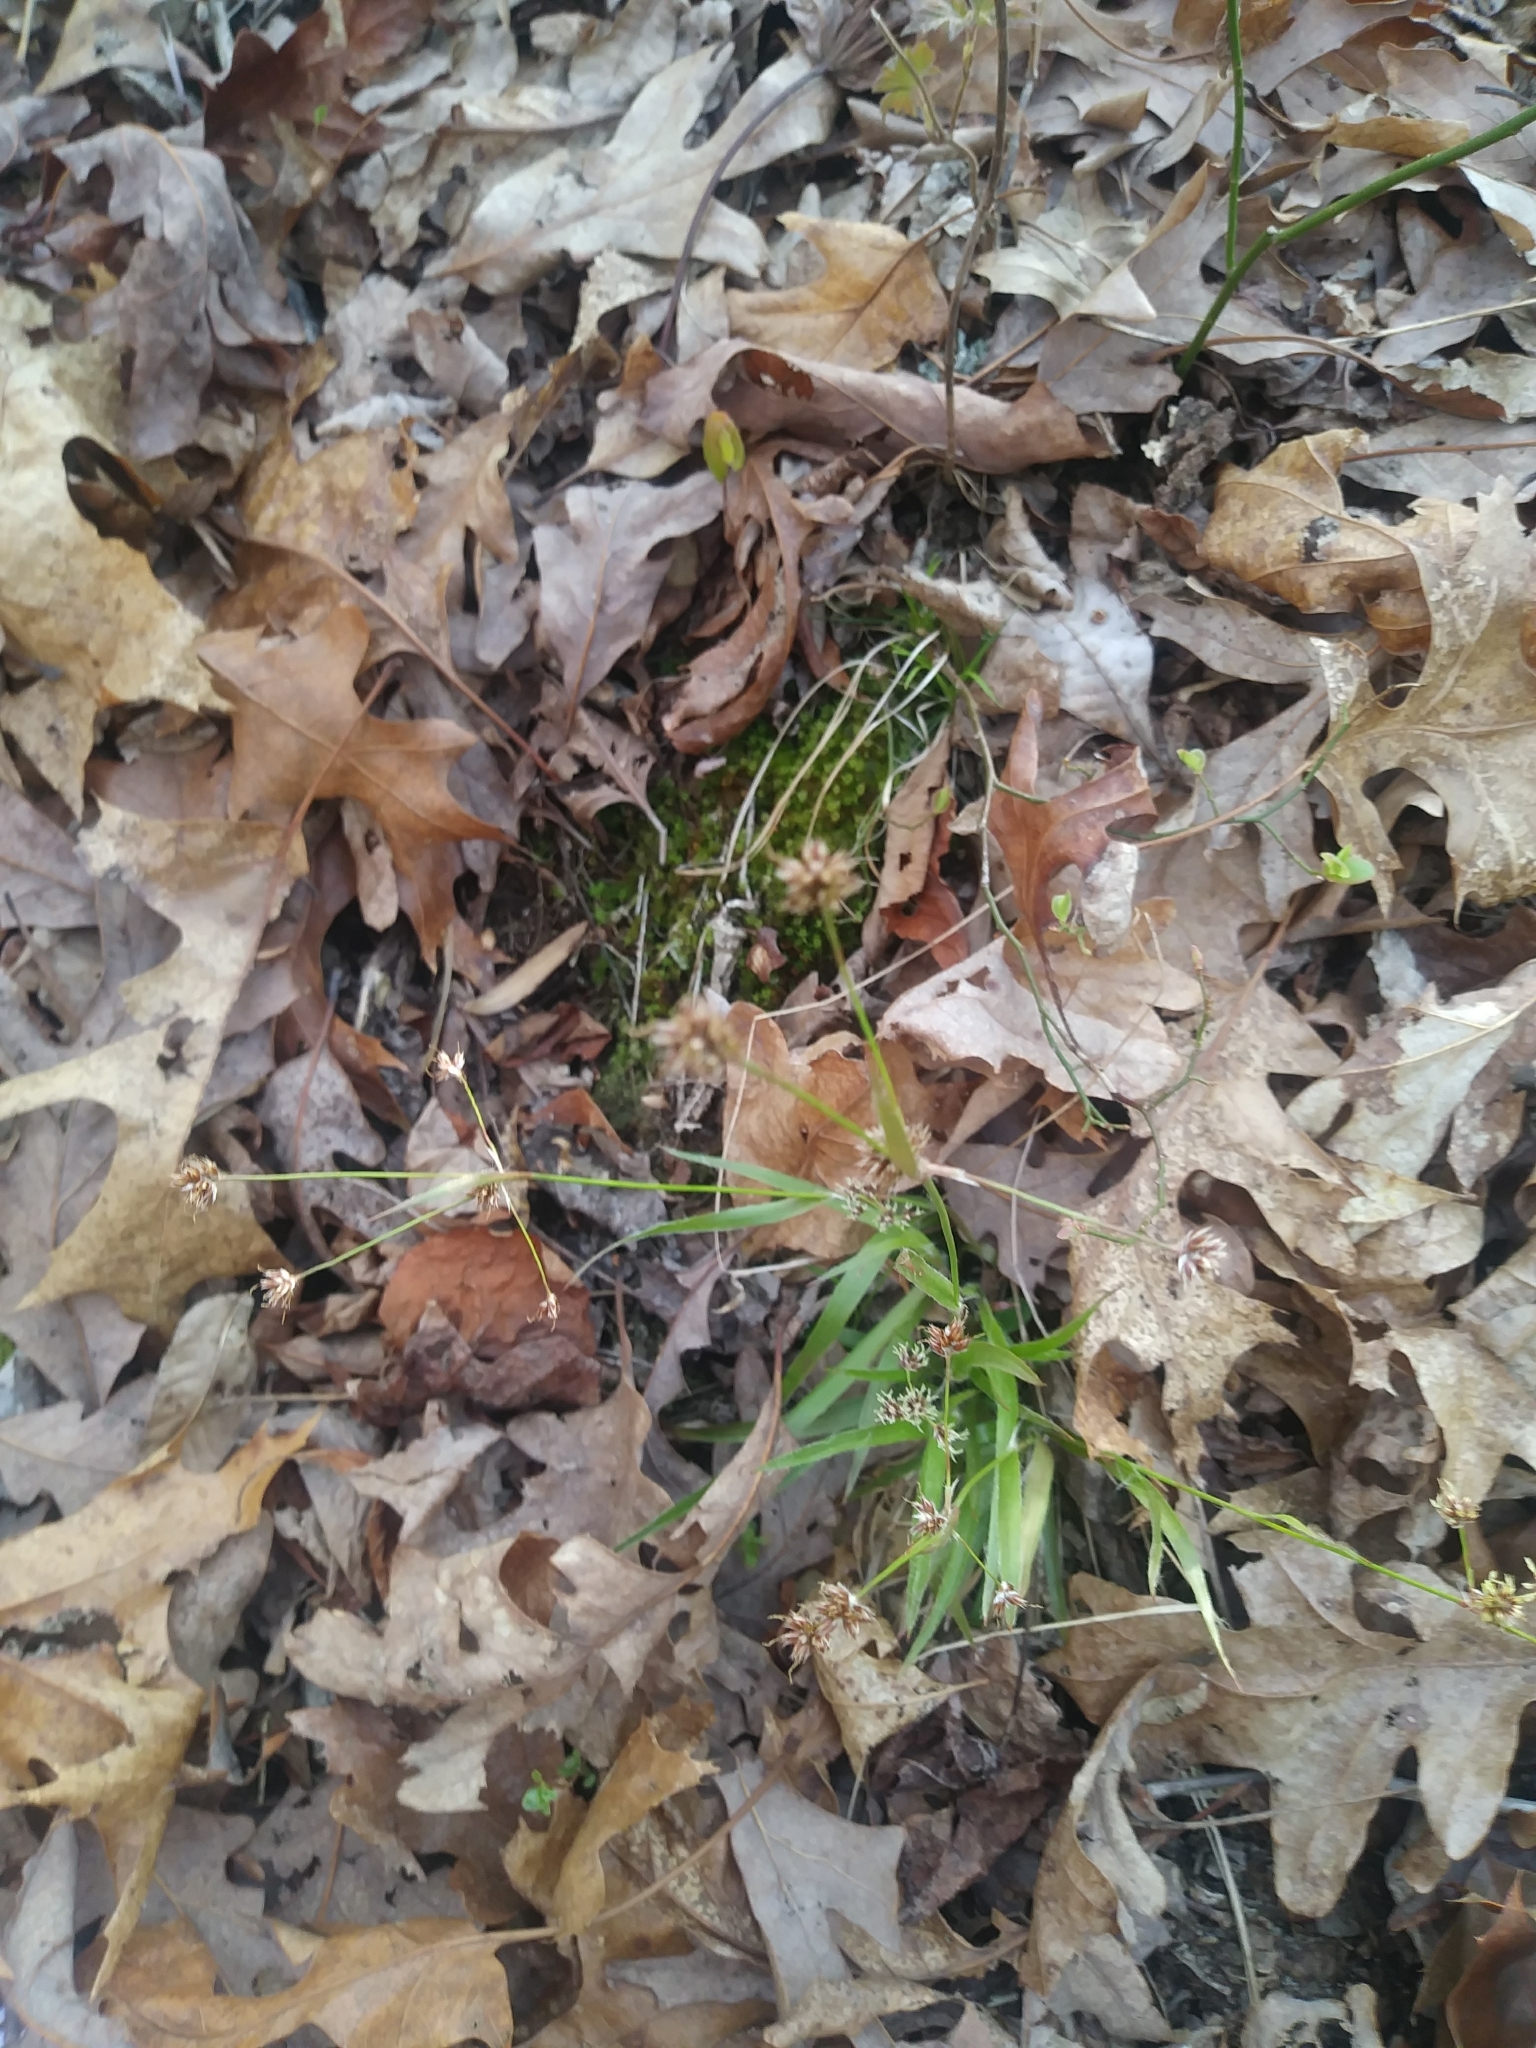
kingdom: Plantae
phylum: Tracheophyta
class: Liliopsida
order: Poales
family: Juncaceae
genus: Luzula
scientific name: Luzula echinata
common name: Hedgehog woodrush
